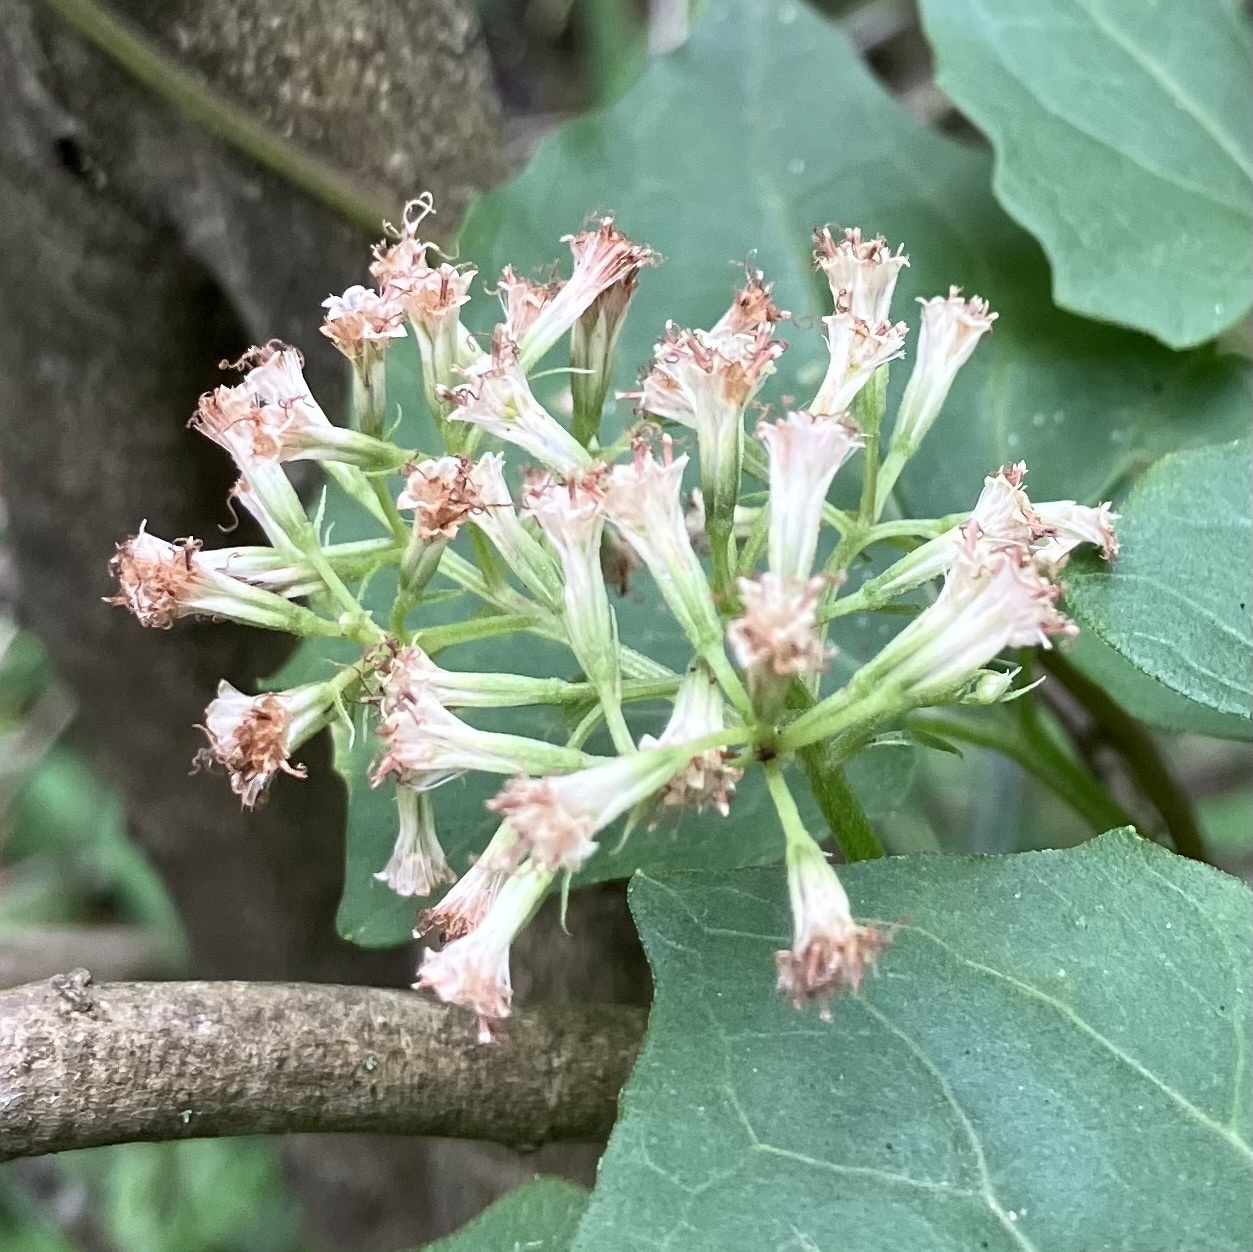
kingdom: Plantae
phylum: Tracheophyta
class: Magnoliopsida
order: Asterales
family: Asteraceae
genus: Mikania
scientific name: Mikania scandens
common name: Climbing hempvine
